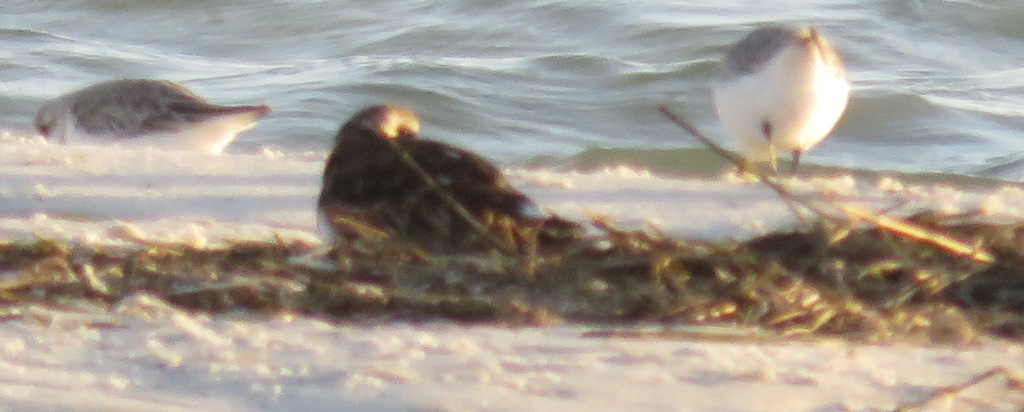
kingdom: Animalia
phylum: Chordata
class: Aves
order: Charadriiformes
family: Scolopacidae
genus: Arenaria
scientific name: Arenaria interpres
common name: Ruddy turnstone
